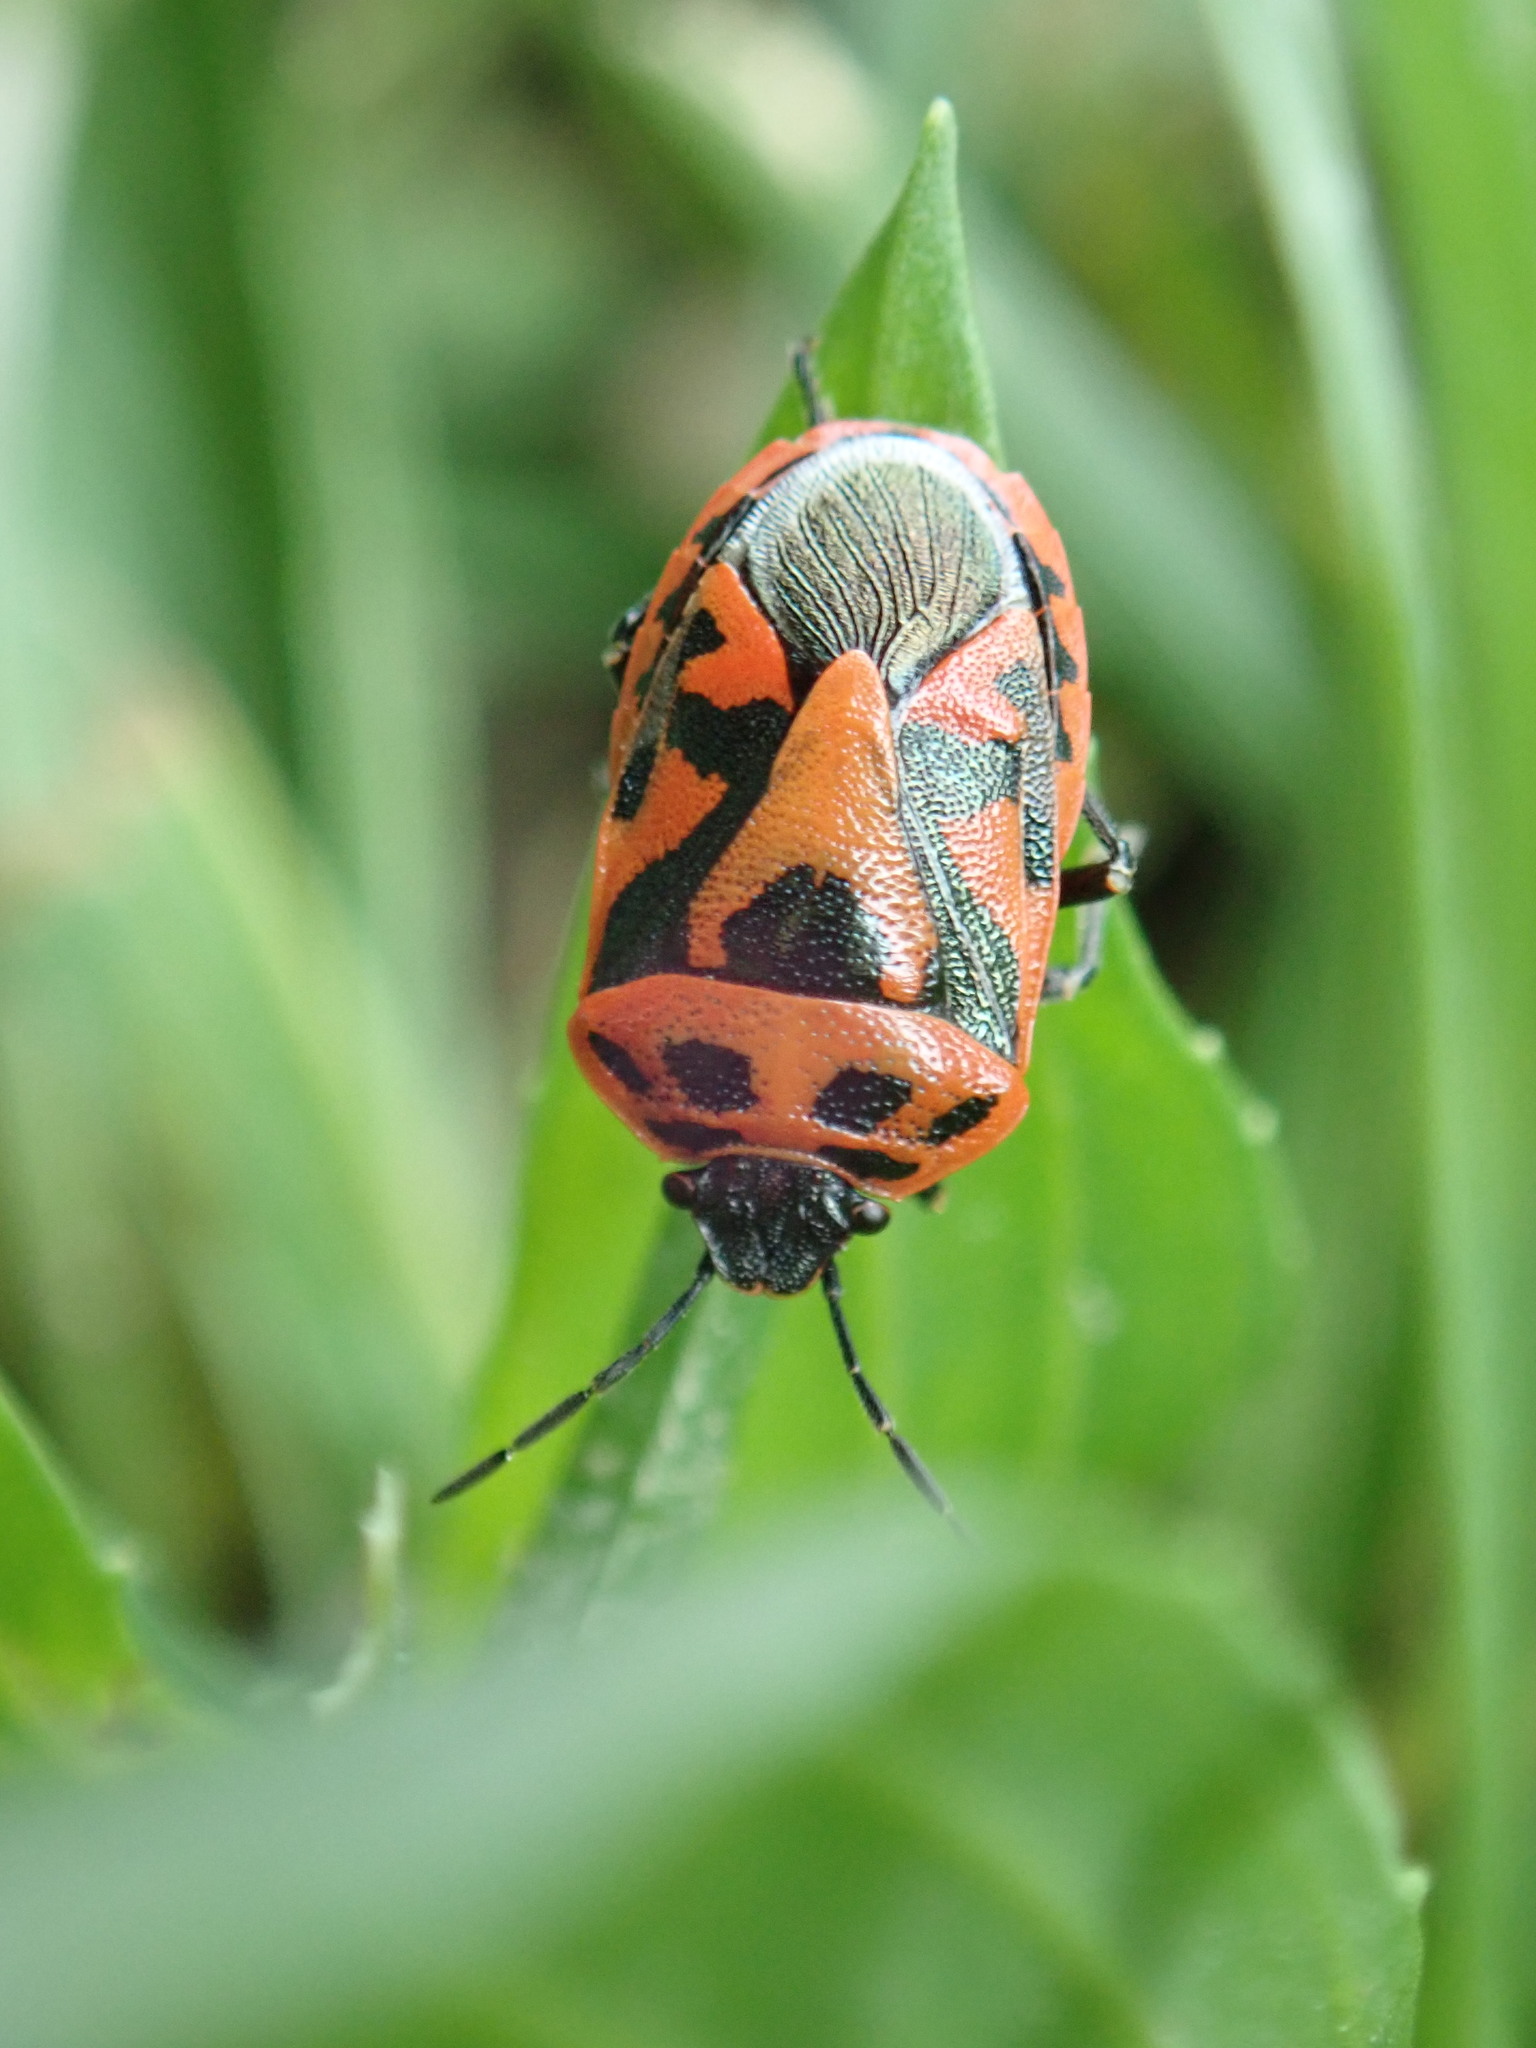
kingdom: Animalia
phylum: Arthropoda
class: Insecta
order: Hemiptera
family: Pentatomidae
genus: Eurydema
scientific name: Eurydema ornata
